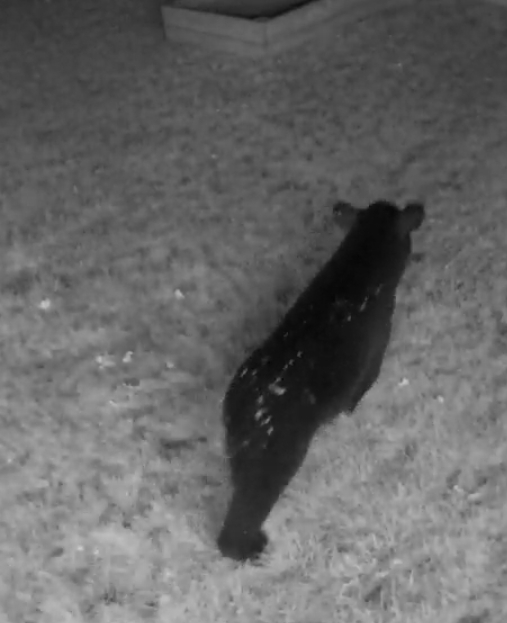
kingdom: Animalia
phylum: Chordata
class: Mammalia
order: Carnivora
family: Ursidae
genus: Ursus
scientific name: Ursus americanus
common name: American black bear
